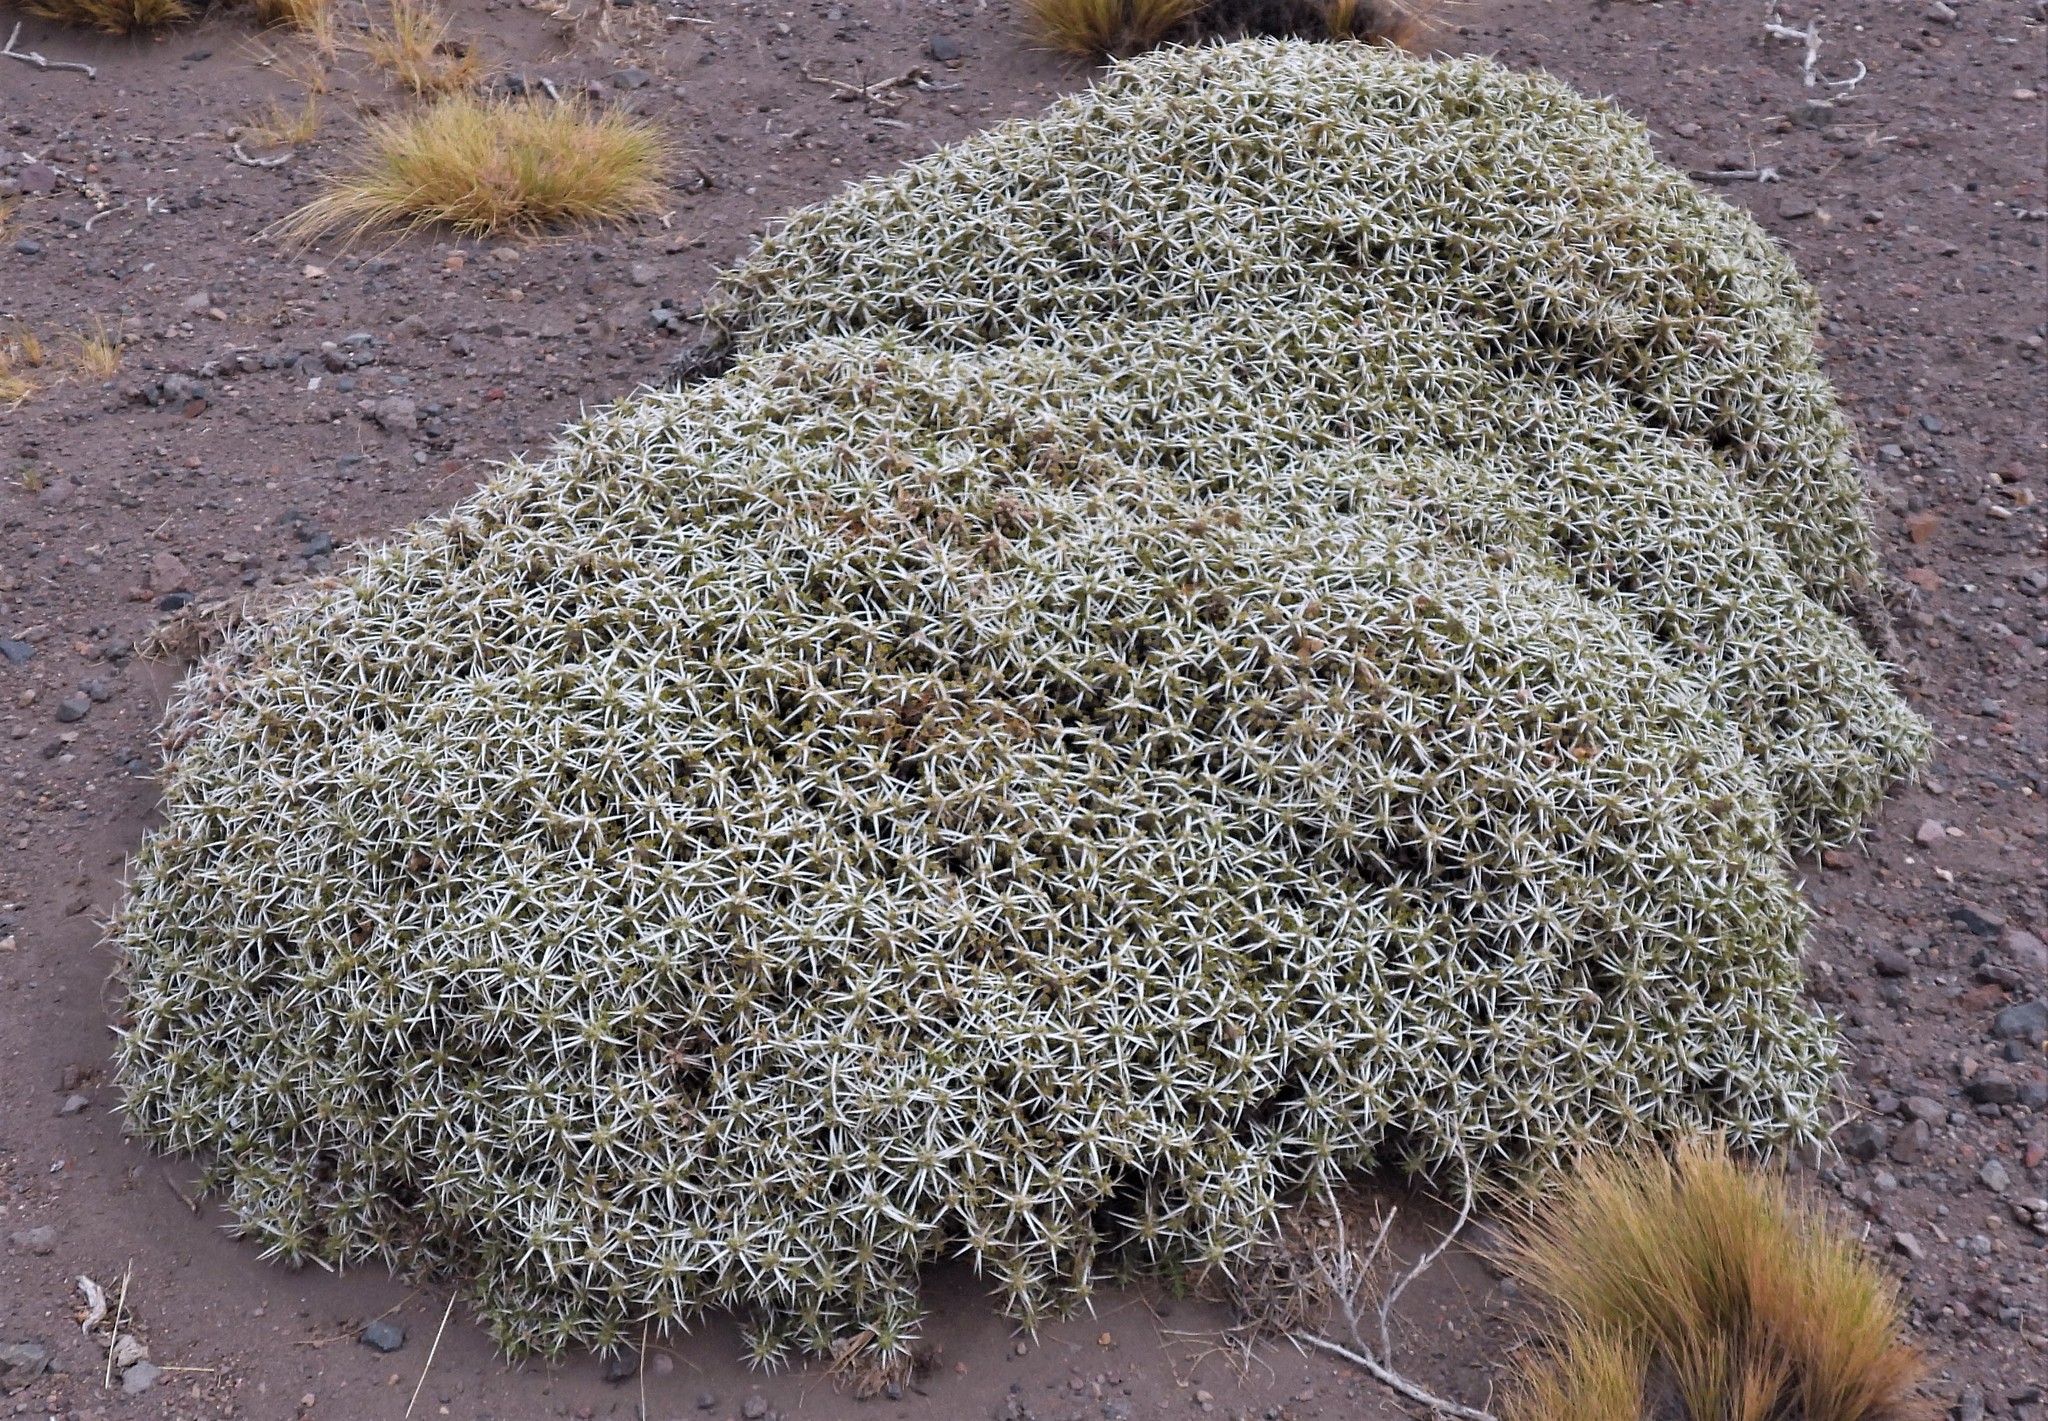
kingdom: Plantae
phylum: Tracheophyta
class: Magnoliopsida
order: Caryophyllales
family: Cactaceae
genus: Maihuenia
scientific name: Maihuenia patagonica
